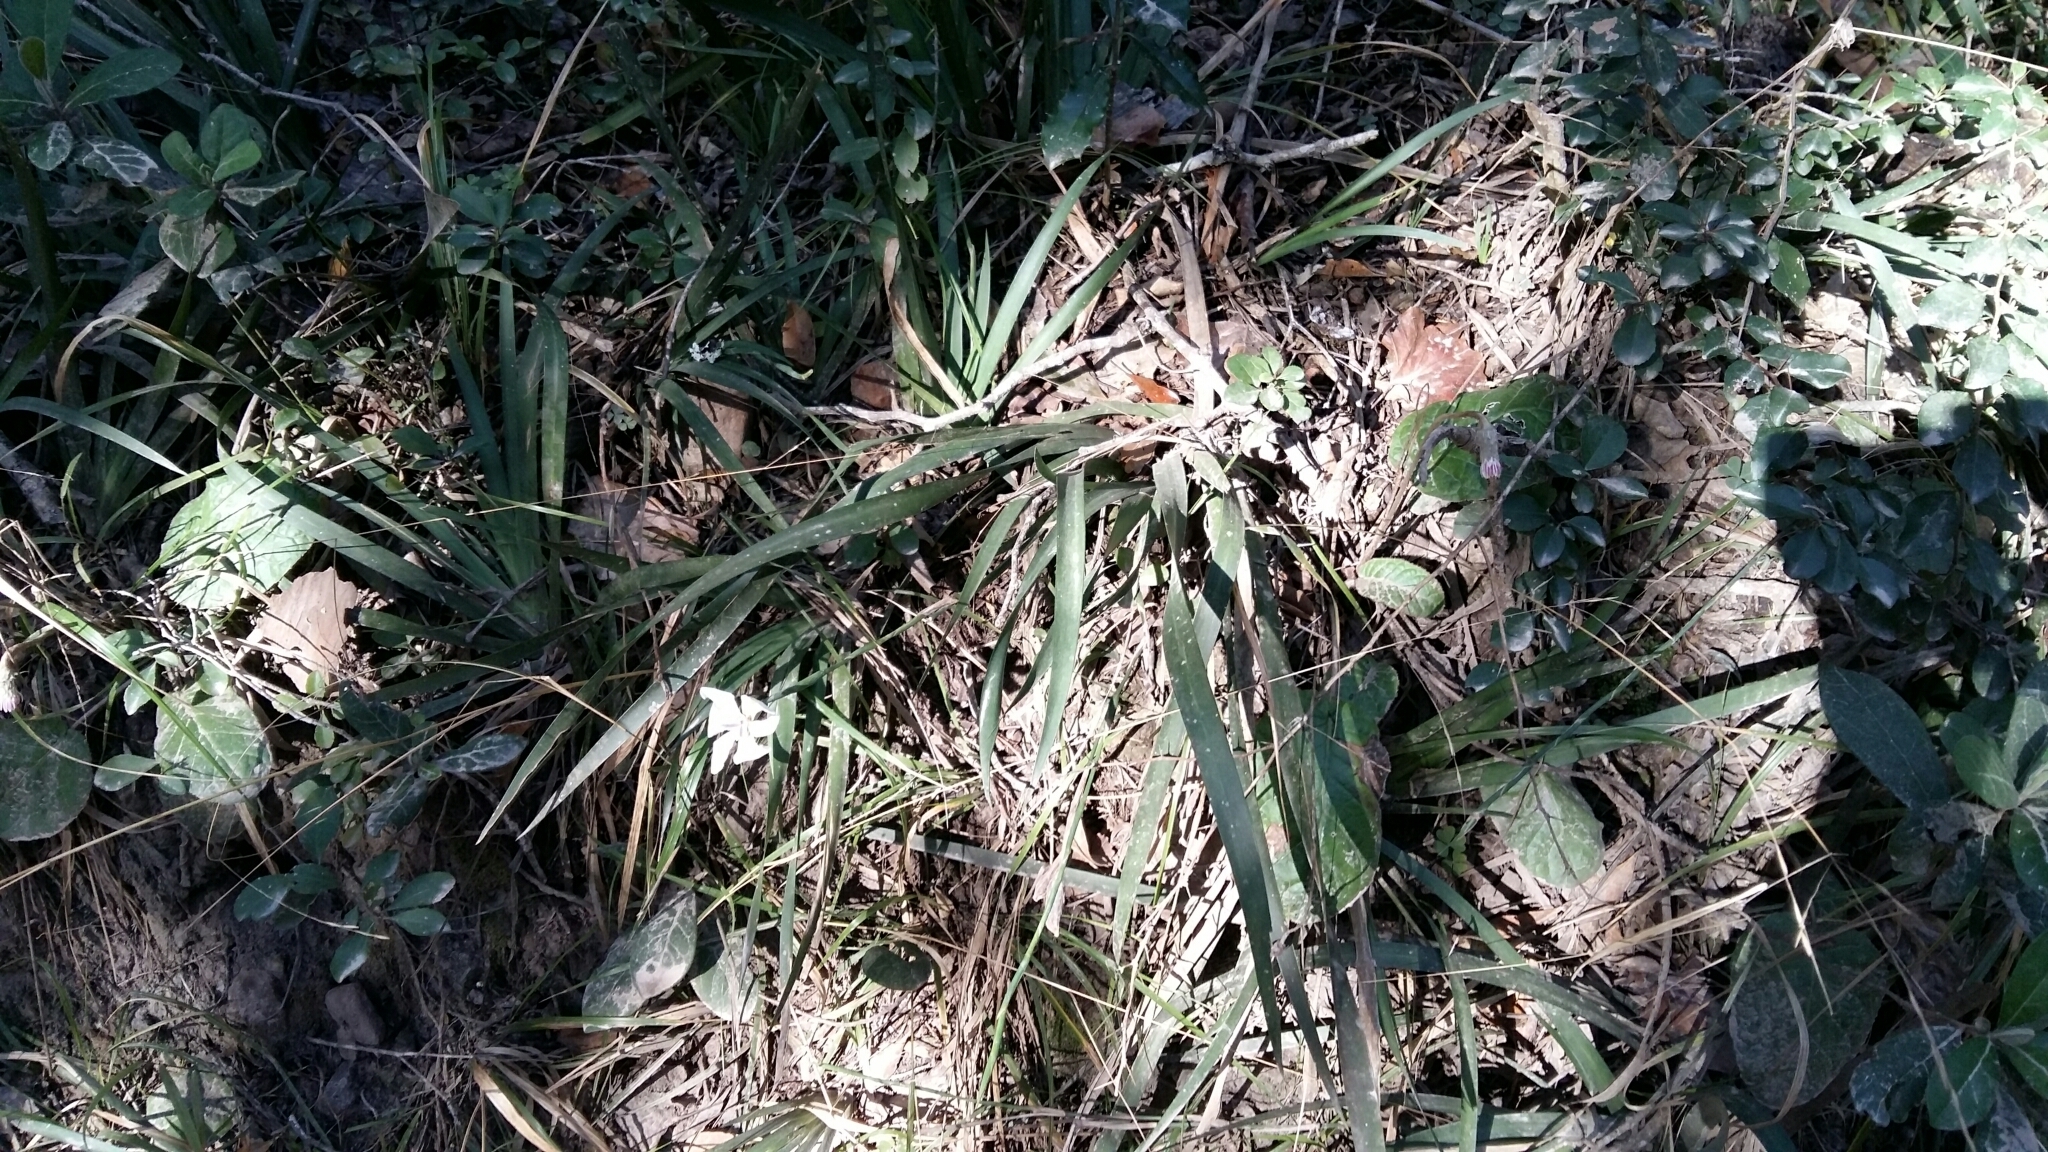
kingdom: Plantae
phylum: Tracheophyta
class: Liliopsida
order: Asparagales
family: Iridaceae
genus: Dietes
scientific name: Dietes iridioides
